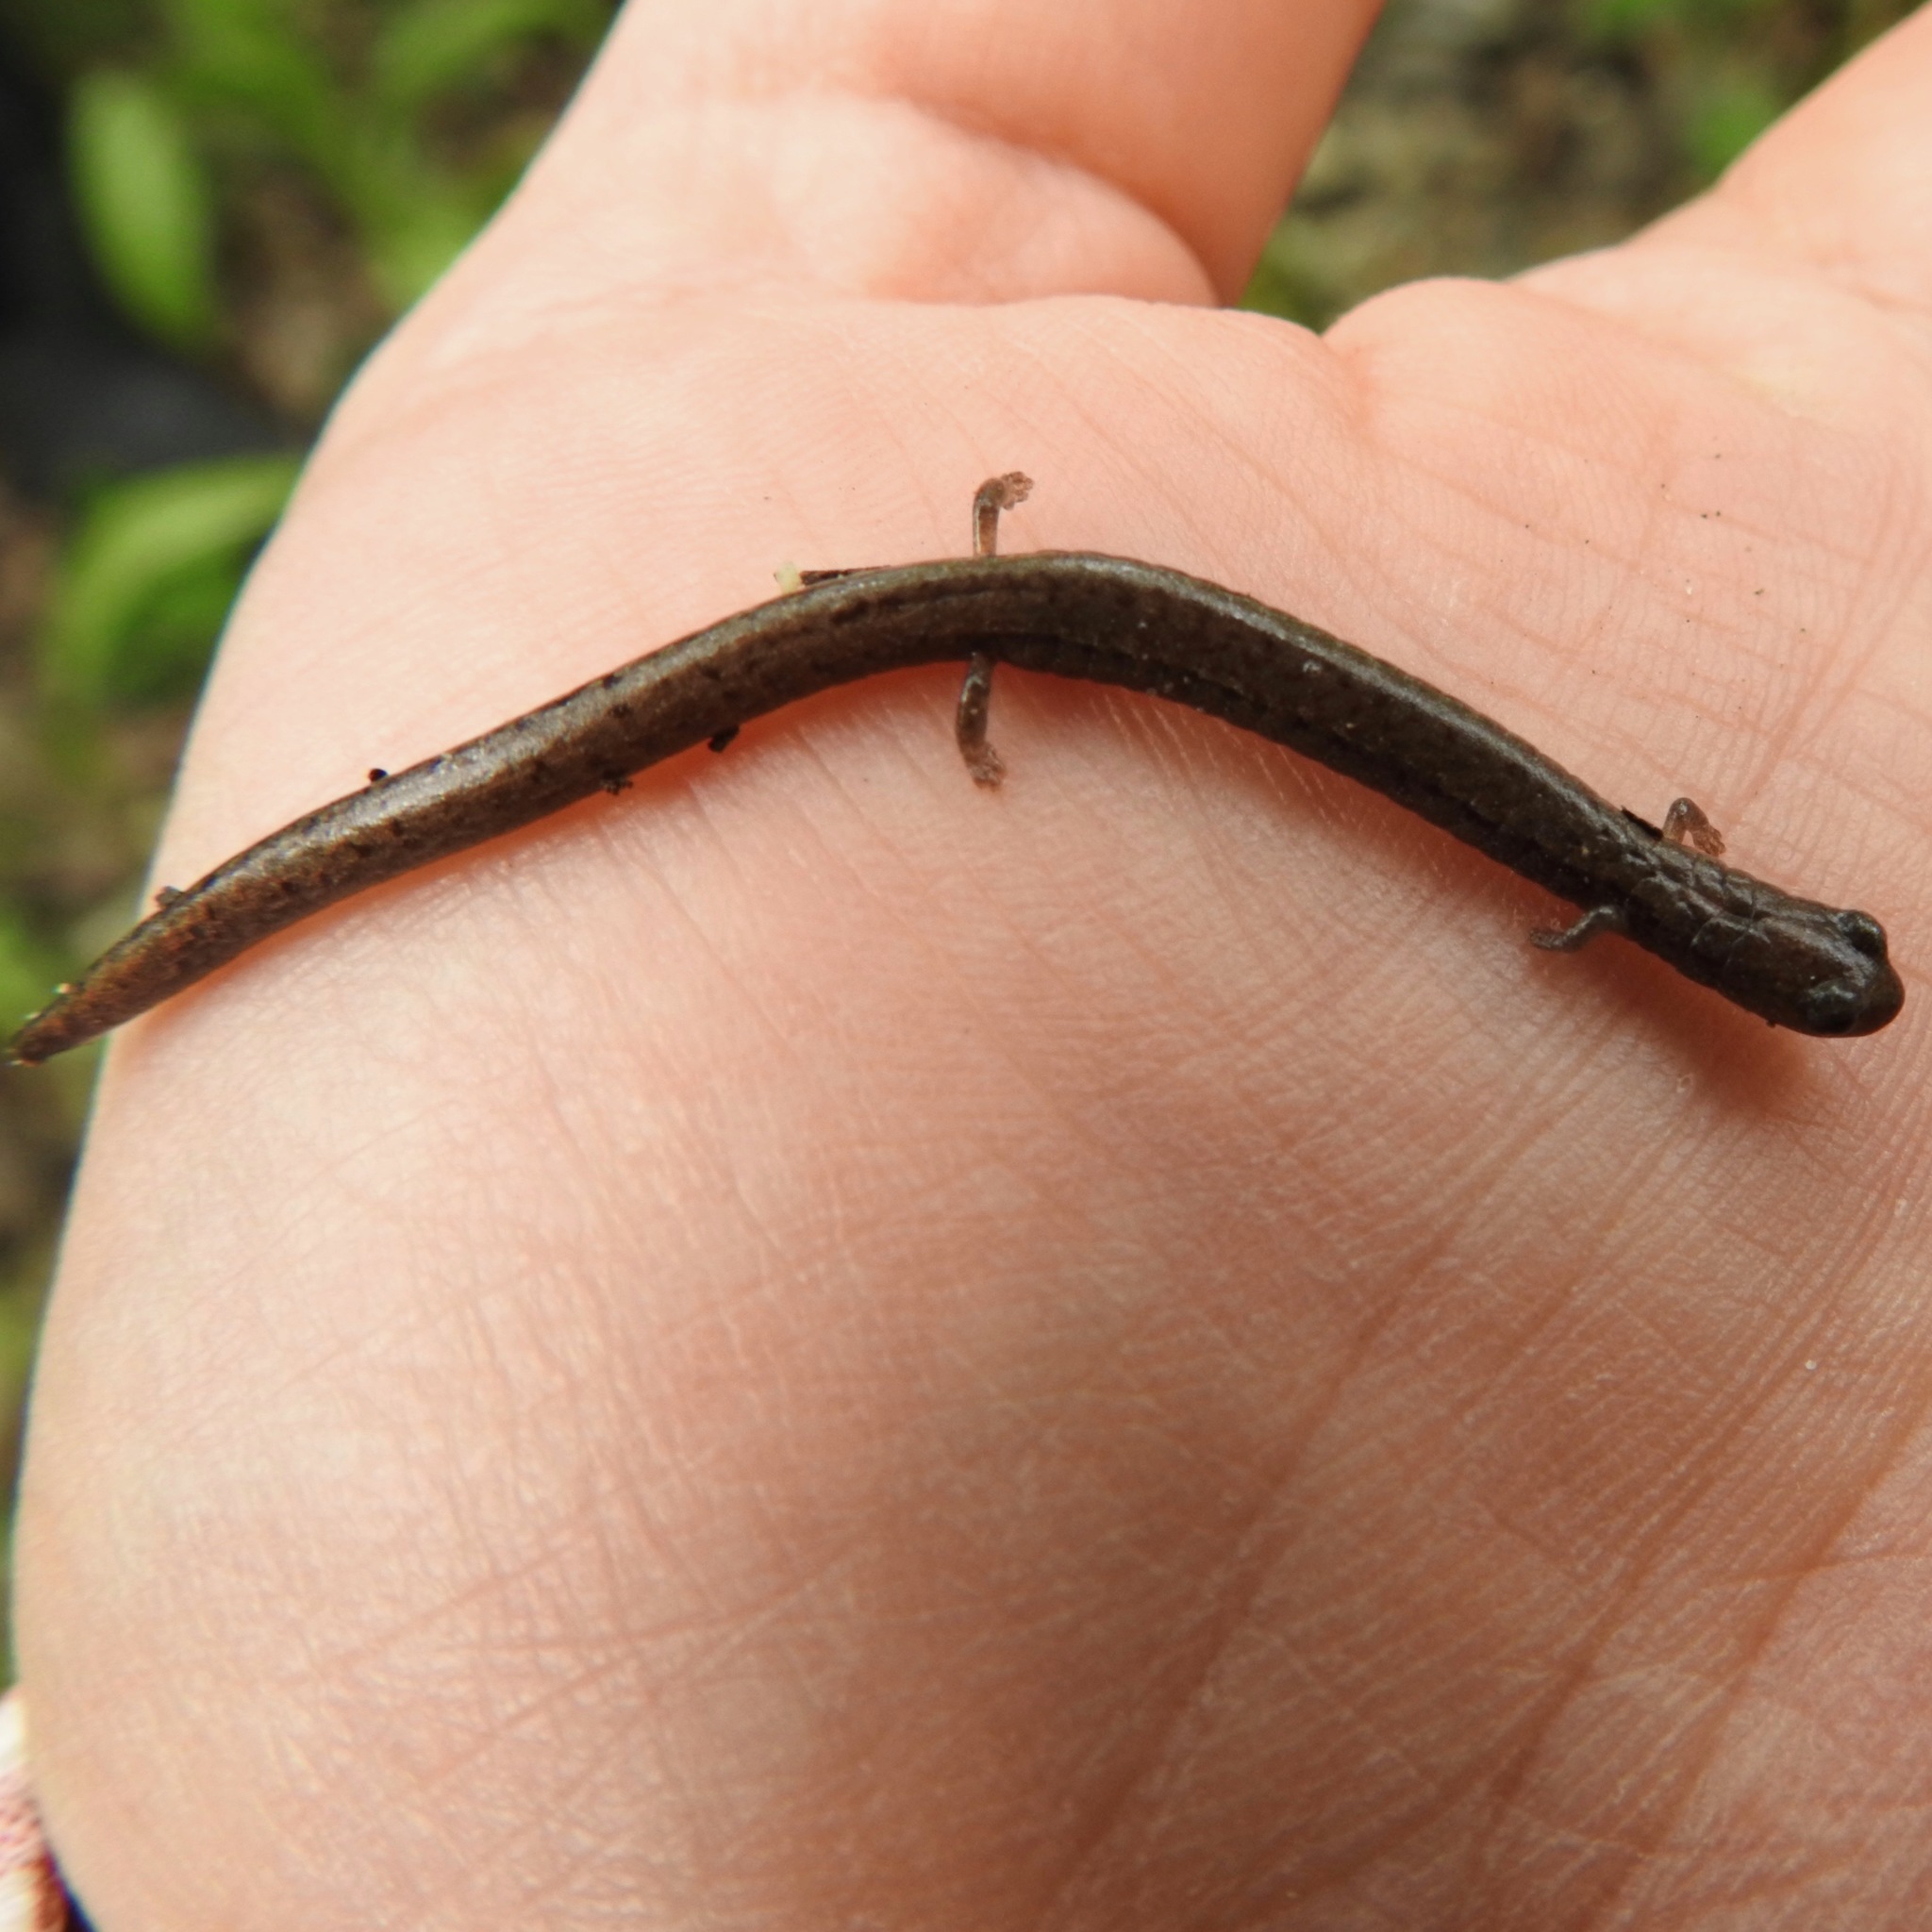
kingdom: Animalia
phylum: Chordata
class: Amphibia
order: Caudata
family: Plethodontidae
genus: Batrachoseps
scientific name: Batrachoseps attenuatus
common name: California slender salamander
